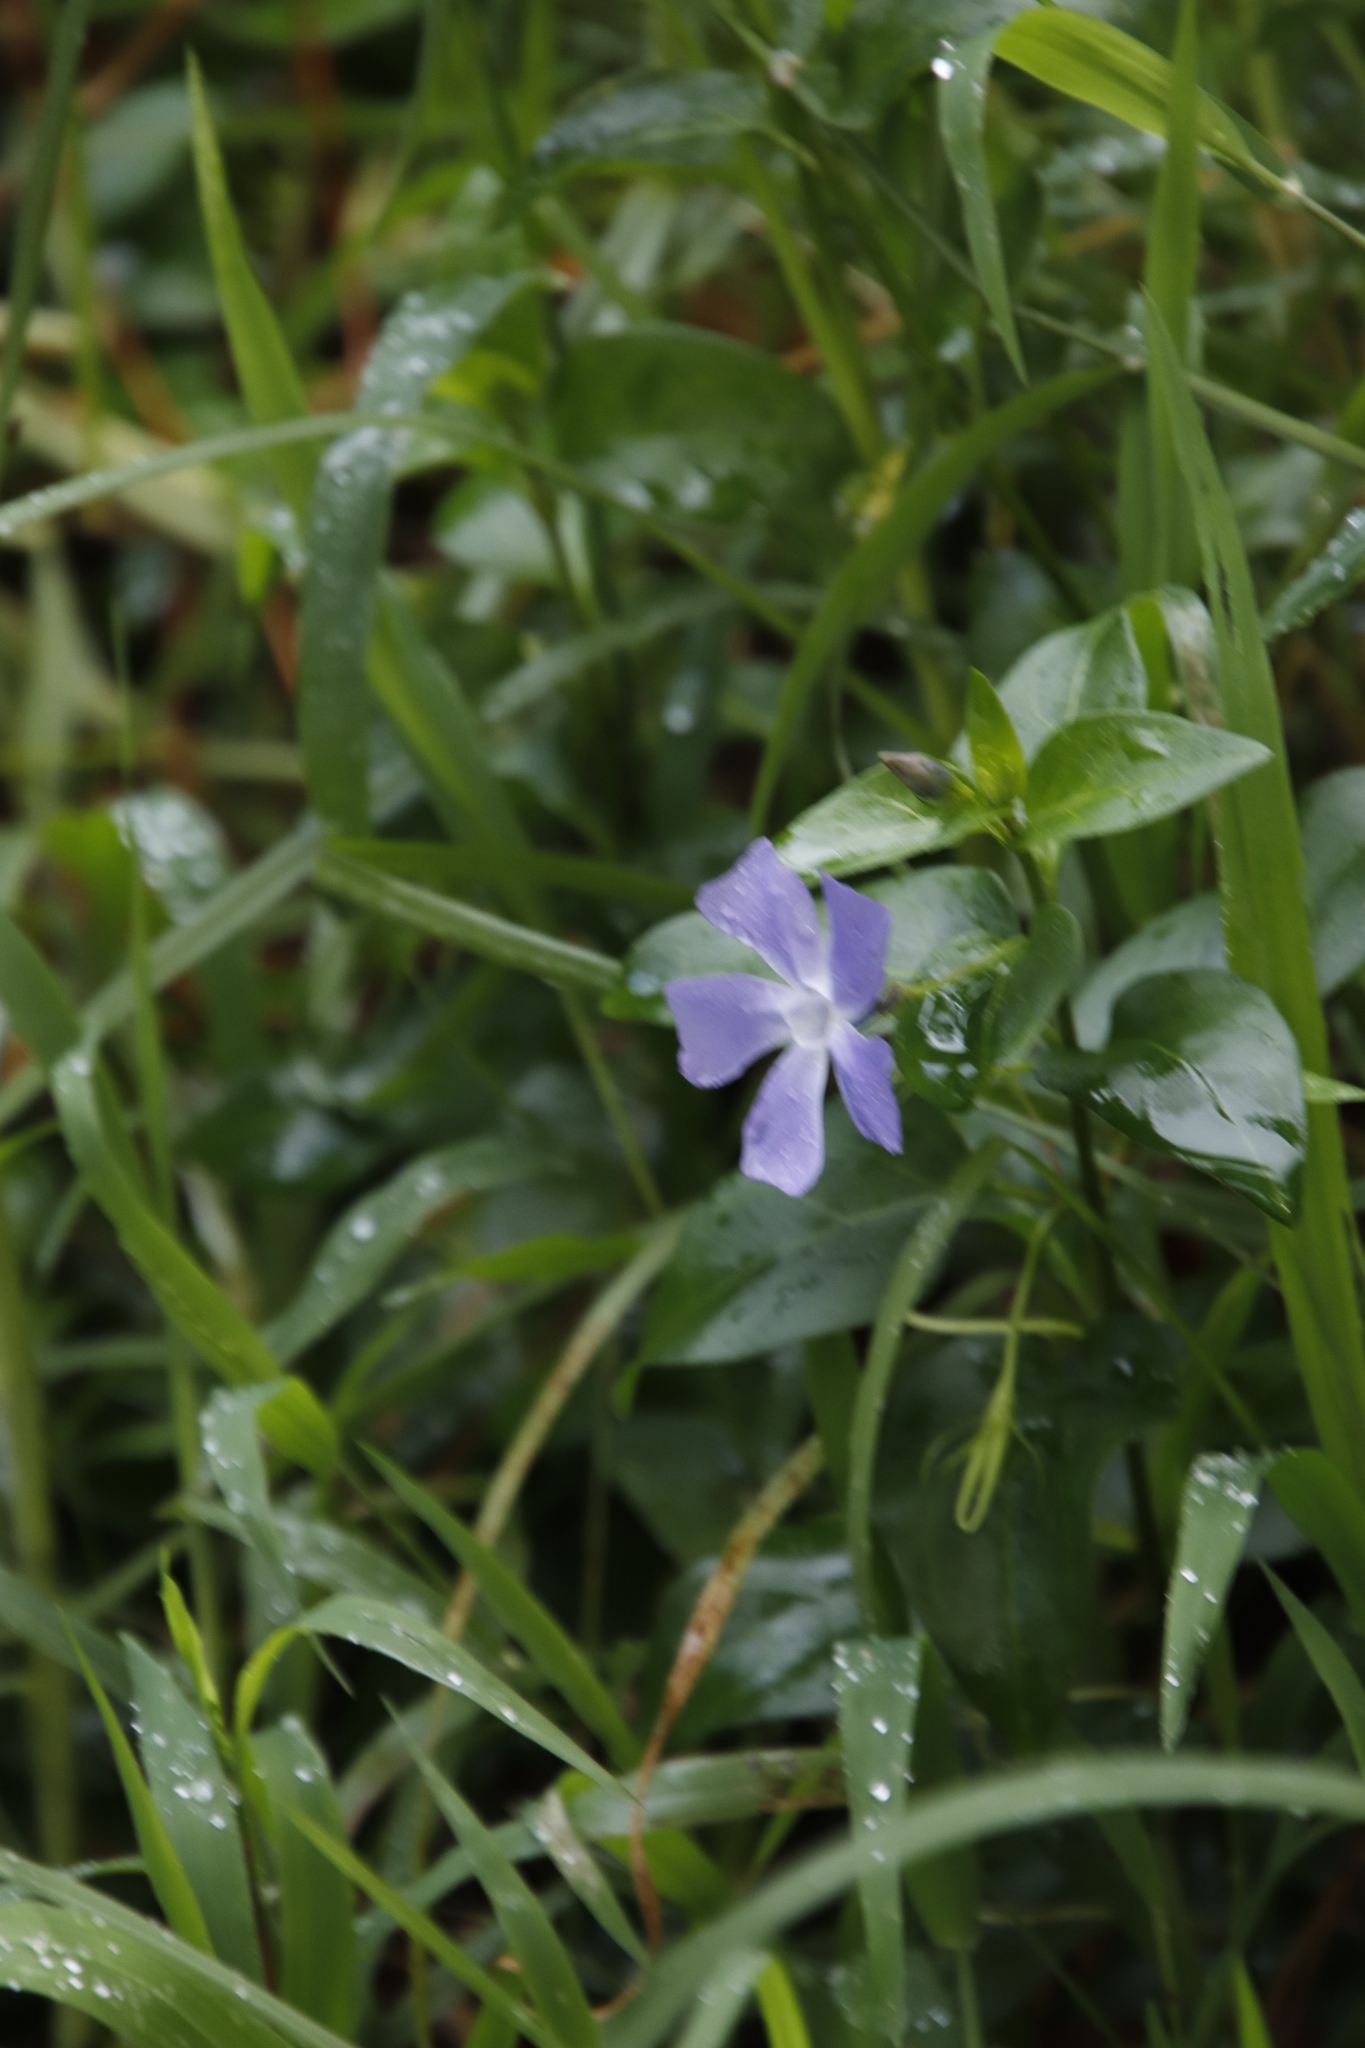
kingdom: Plantae
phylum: Tracheophyta
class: Magnoliopsida
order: Gentianales
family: Apocynaceae
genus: Vinca
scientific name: Vinca major
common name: Greater periwinkle
